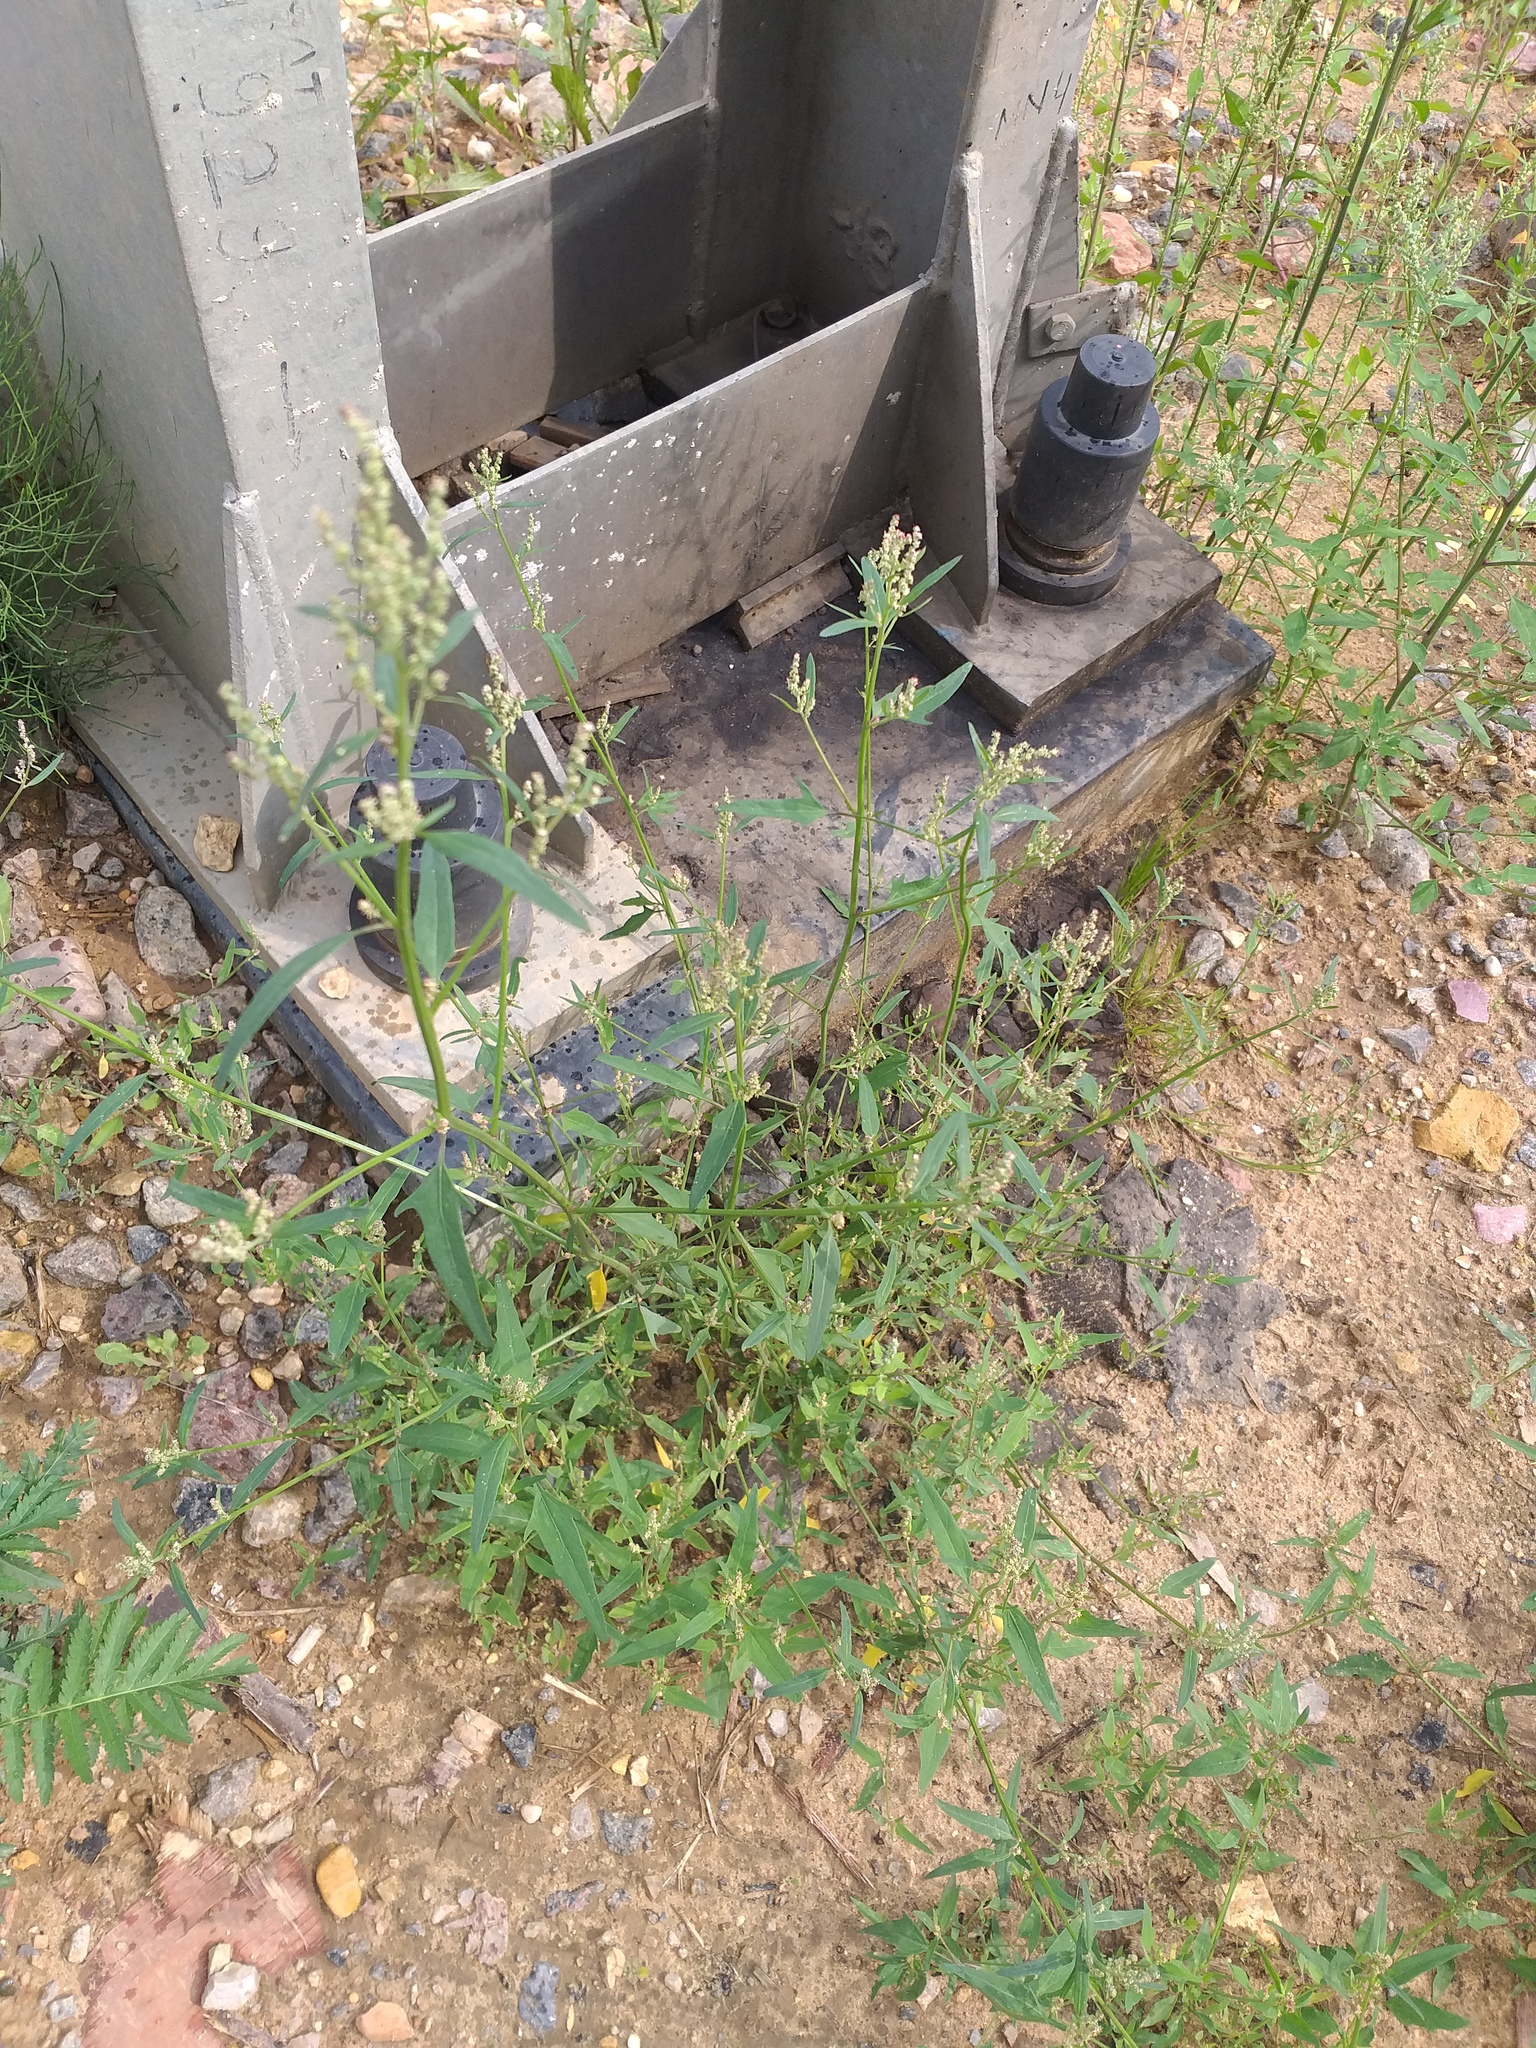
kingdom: Plantae
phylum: Tracheophyta
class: Magnoliopsida
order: Caryophyllales
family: Amaranthaceae
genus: Atriplex
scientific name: Atriplex patula
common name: Common orache
